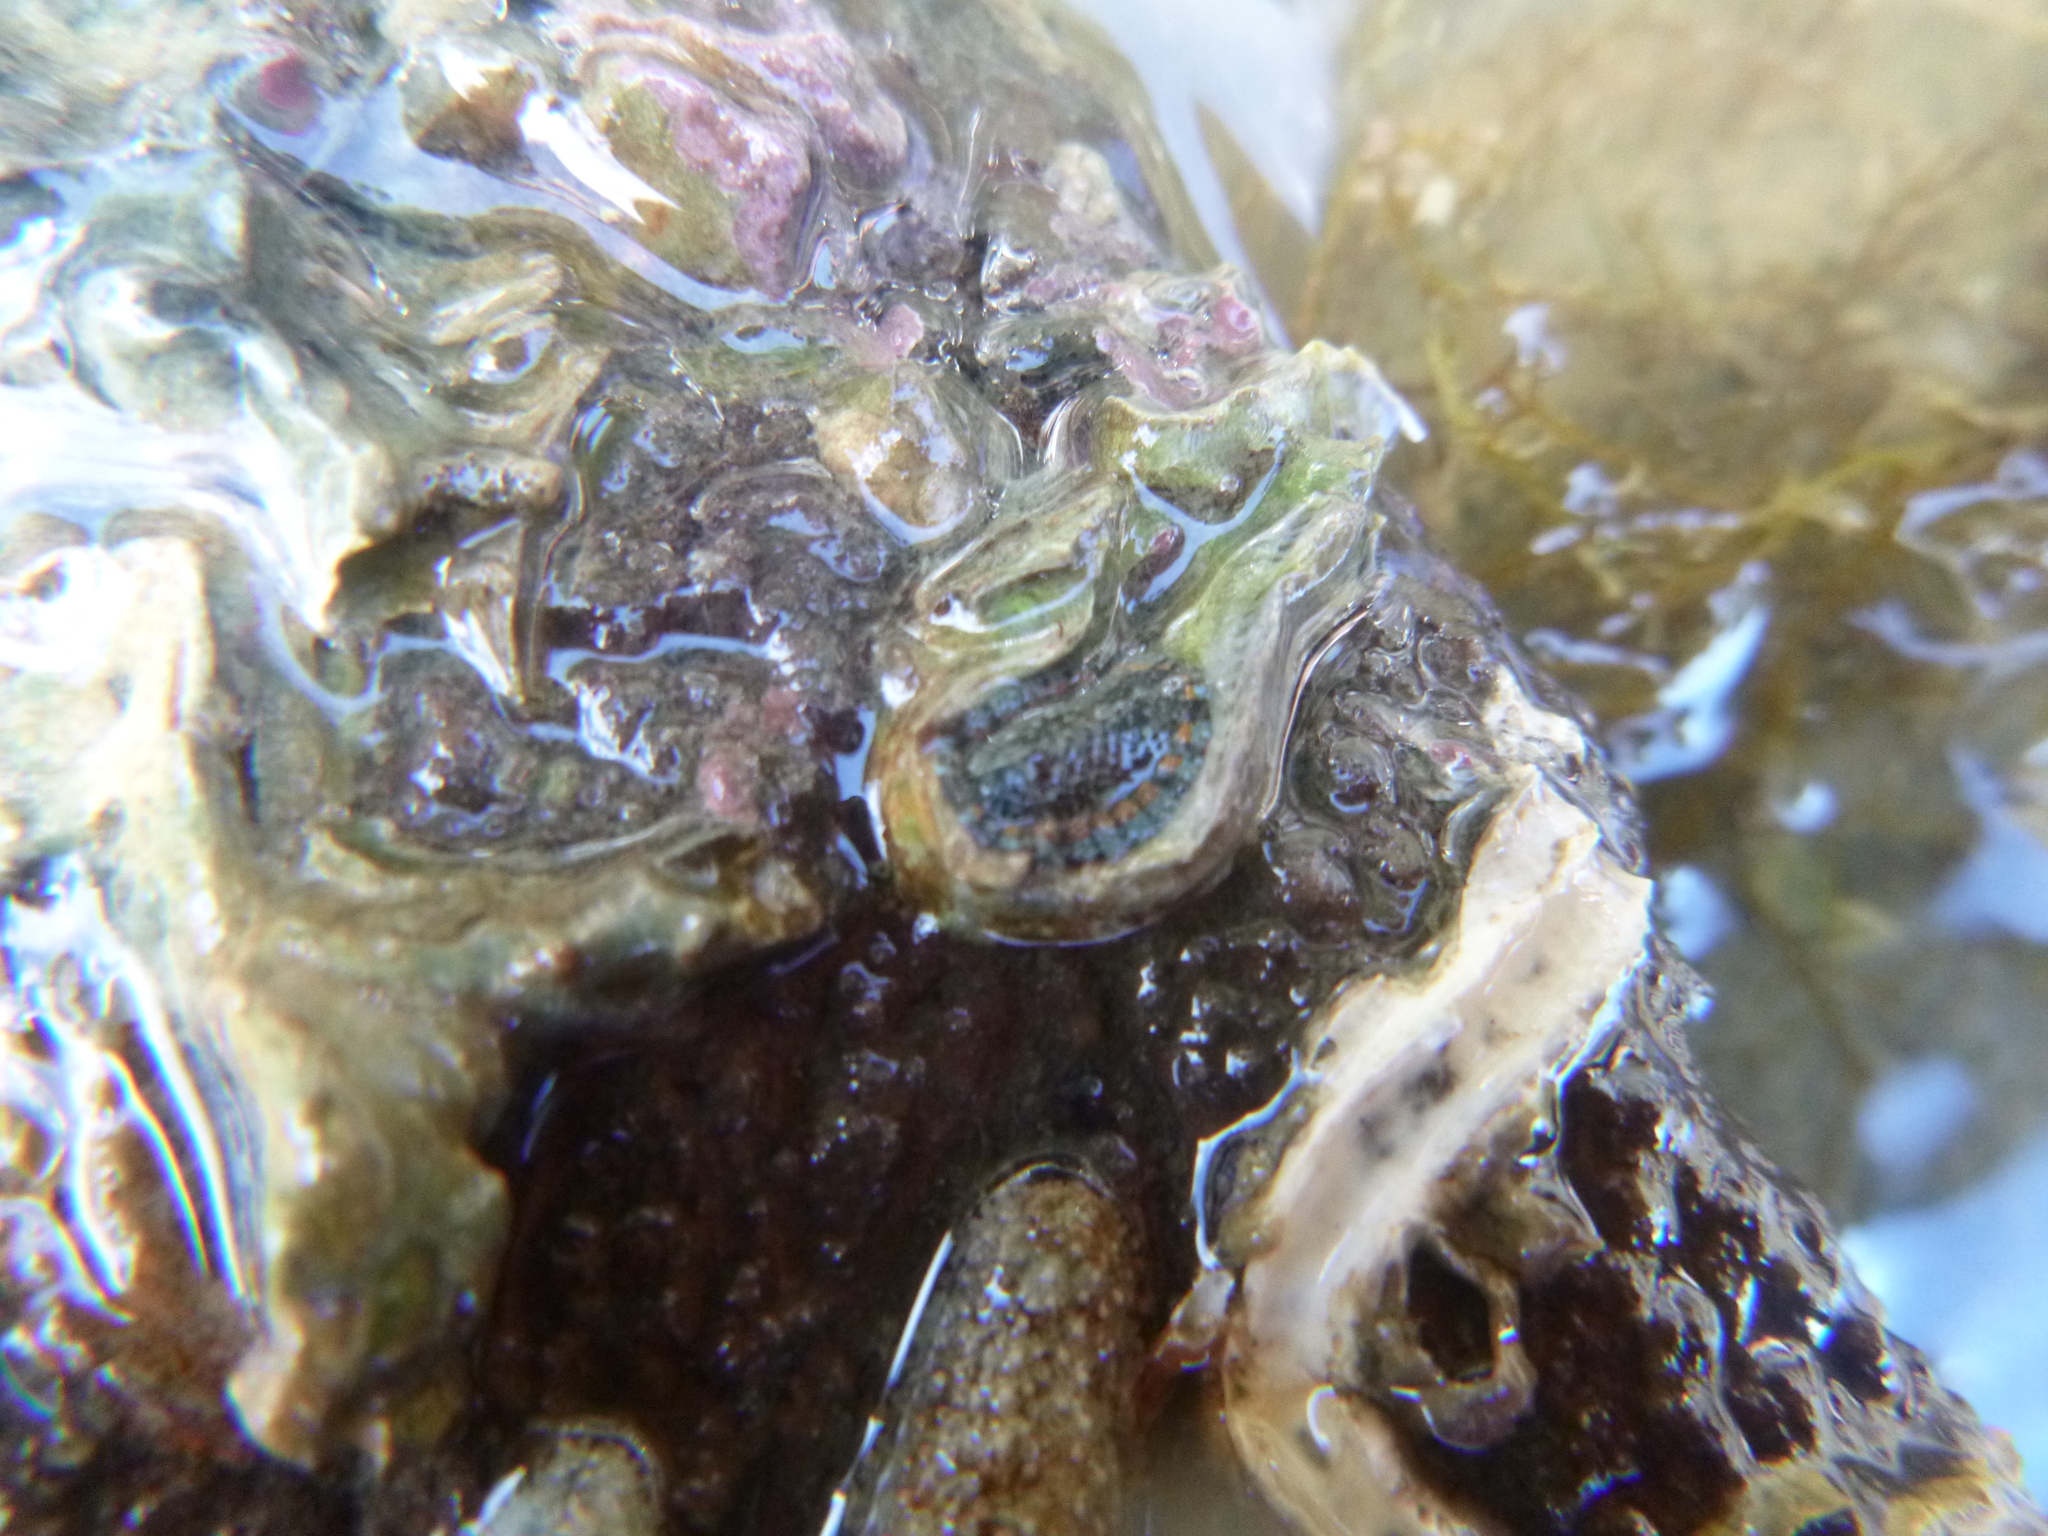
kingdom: Animalia
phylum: Mollusca
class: Polyplacophora
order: Chitonida
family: Chitonidae
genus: Sypharochiton
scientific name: Sypharochiton sinclairi
